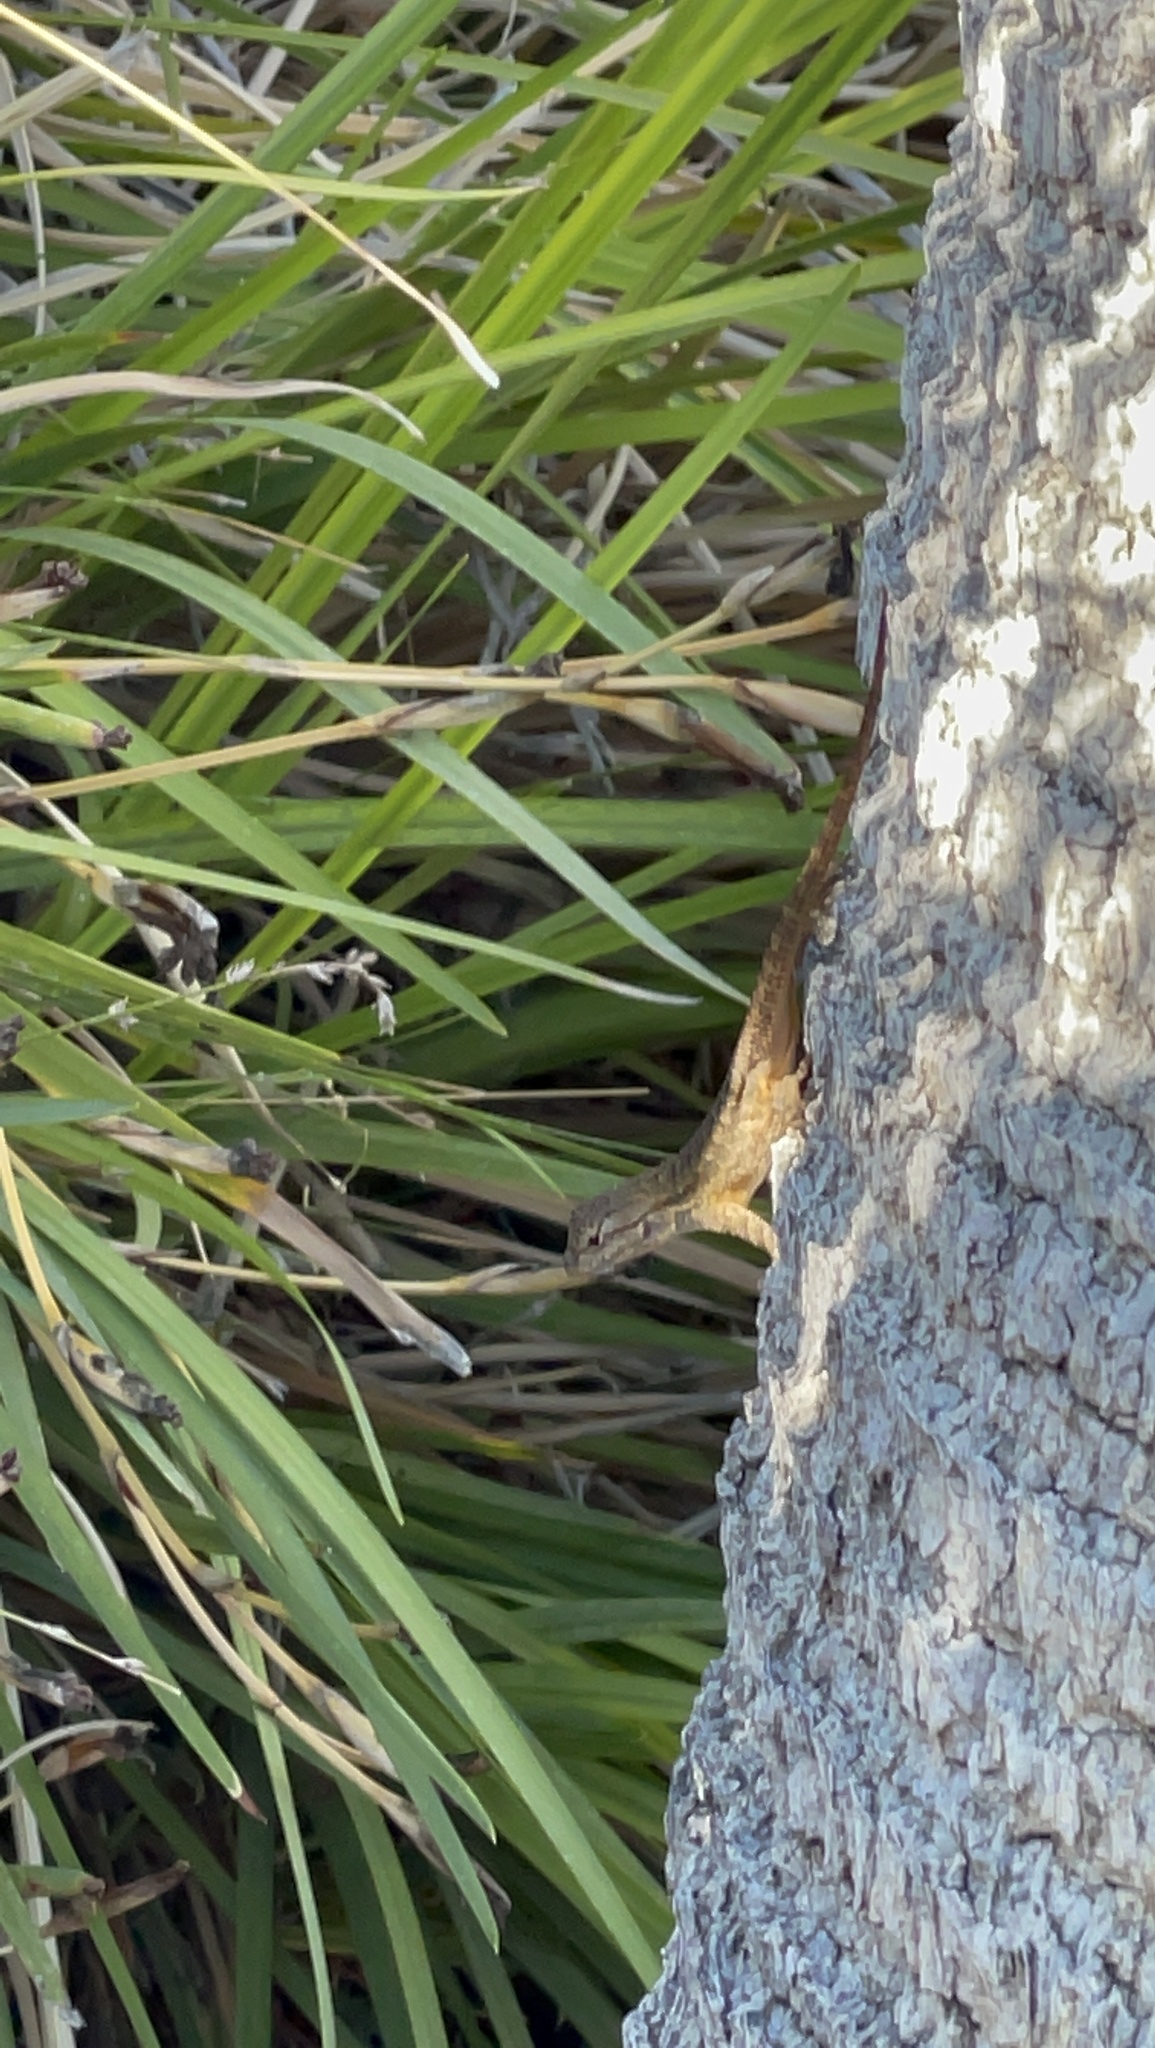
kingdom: Animalia
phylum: Chordata
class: Squamata
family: Phrynosomatidae
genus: Sceloporus
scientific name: Sceloporus occidentalis
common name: Western fence lizard
